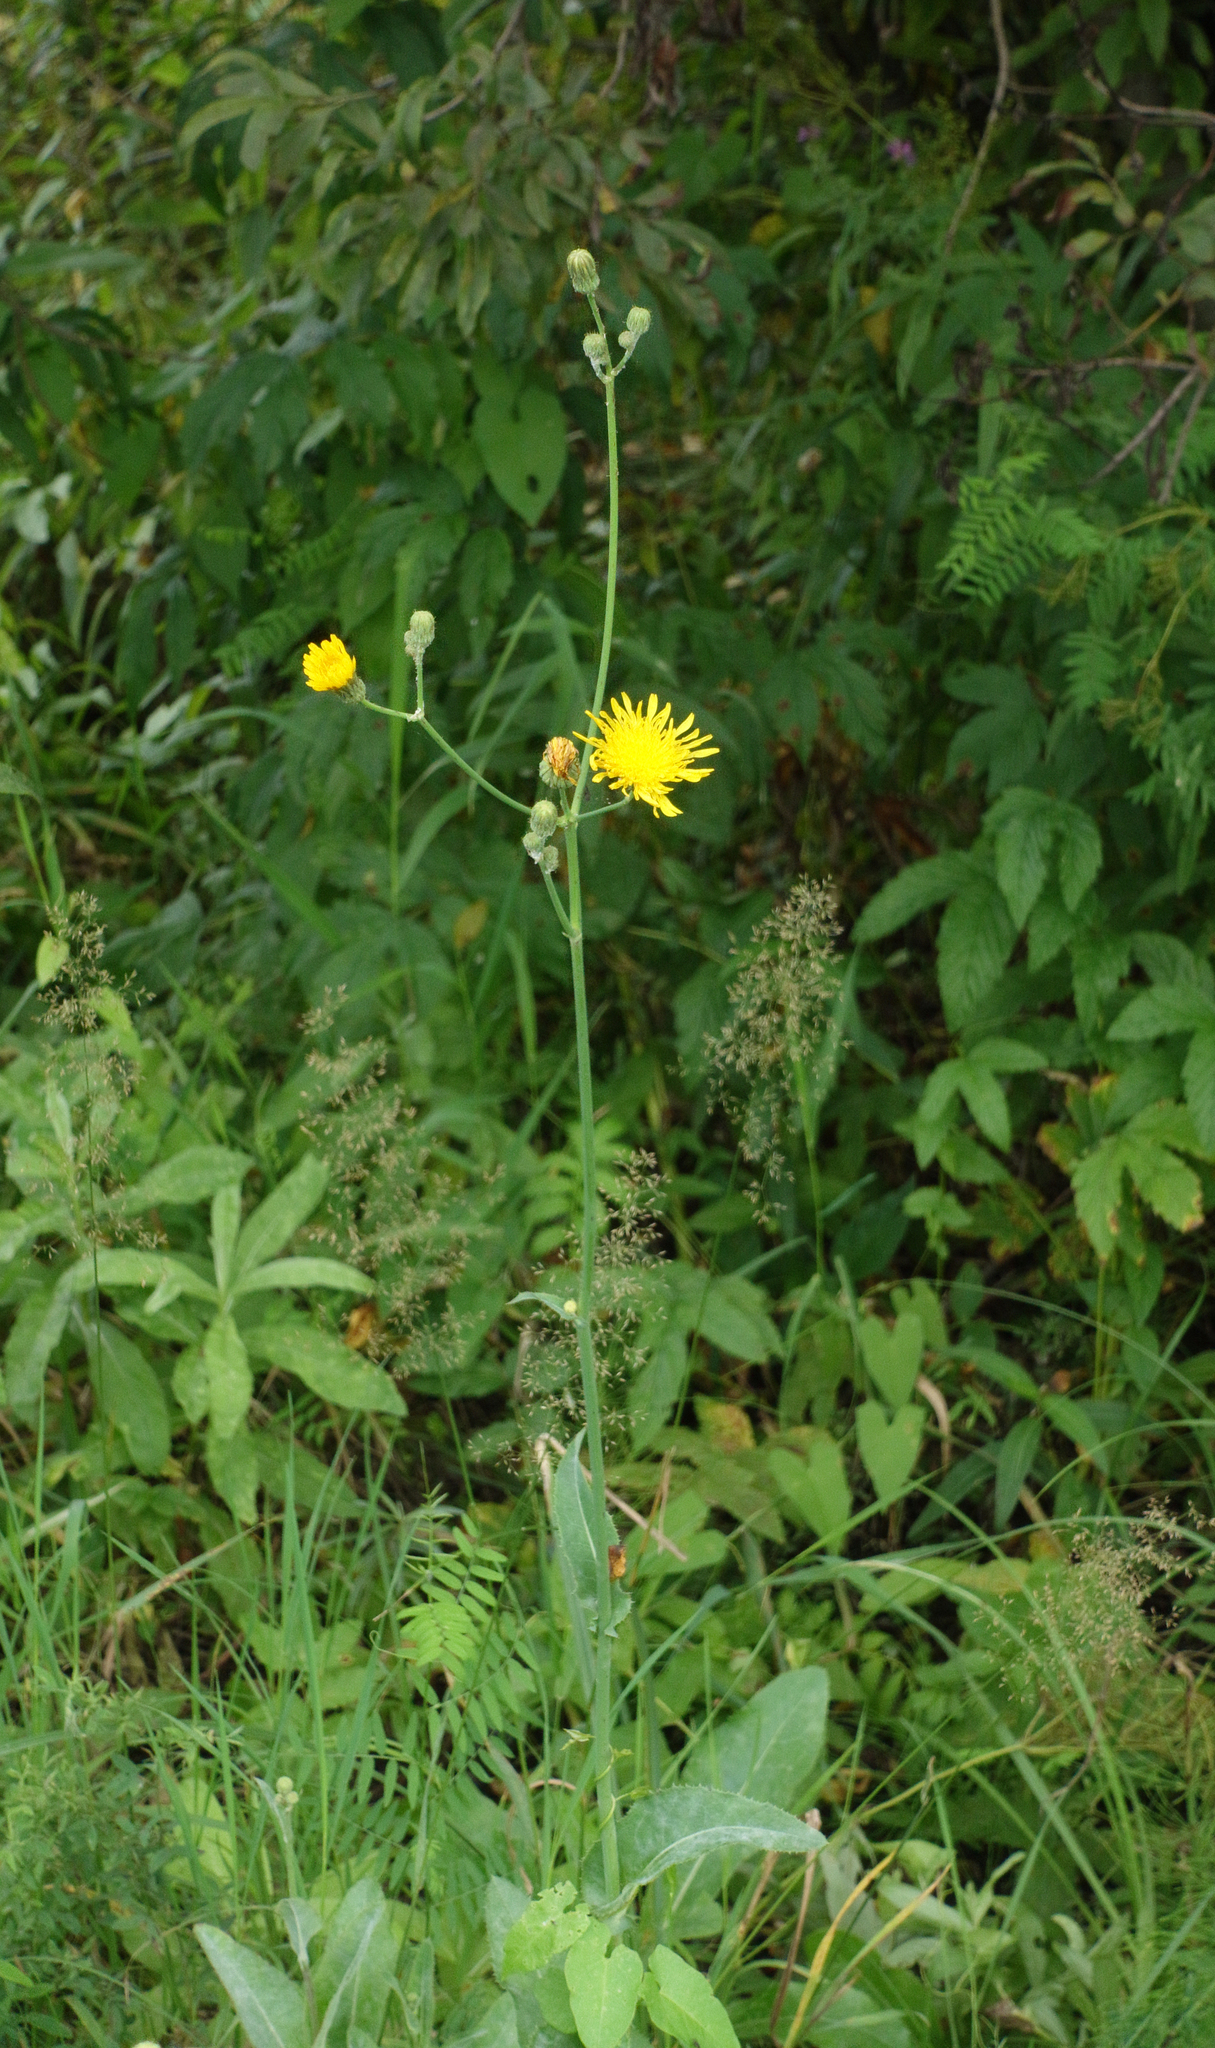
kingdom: Plantae
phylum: Tracheophyta
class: Magnoliopsida
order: Asterales
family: Asteraceae
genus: Sonchus
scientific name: Sonchus arvensis
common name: Perennial sow-thistle
